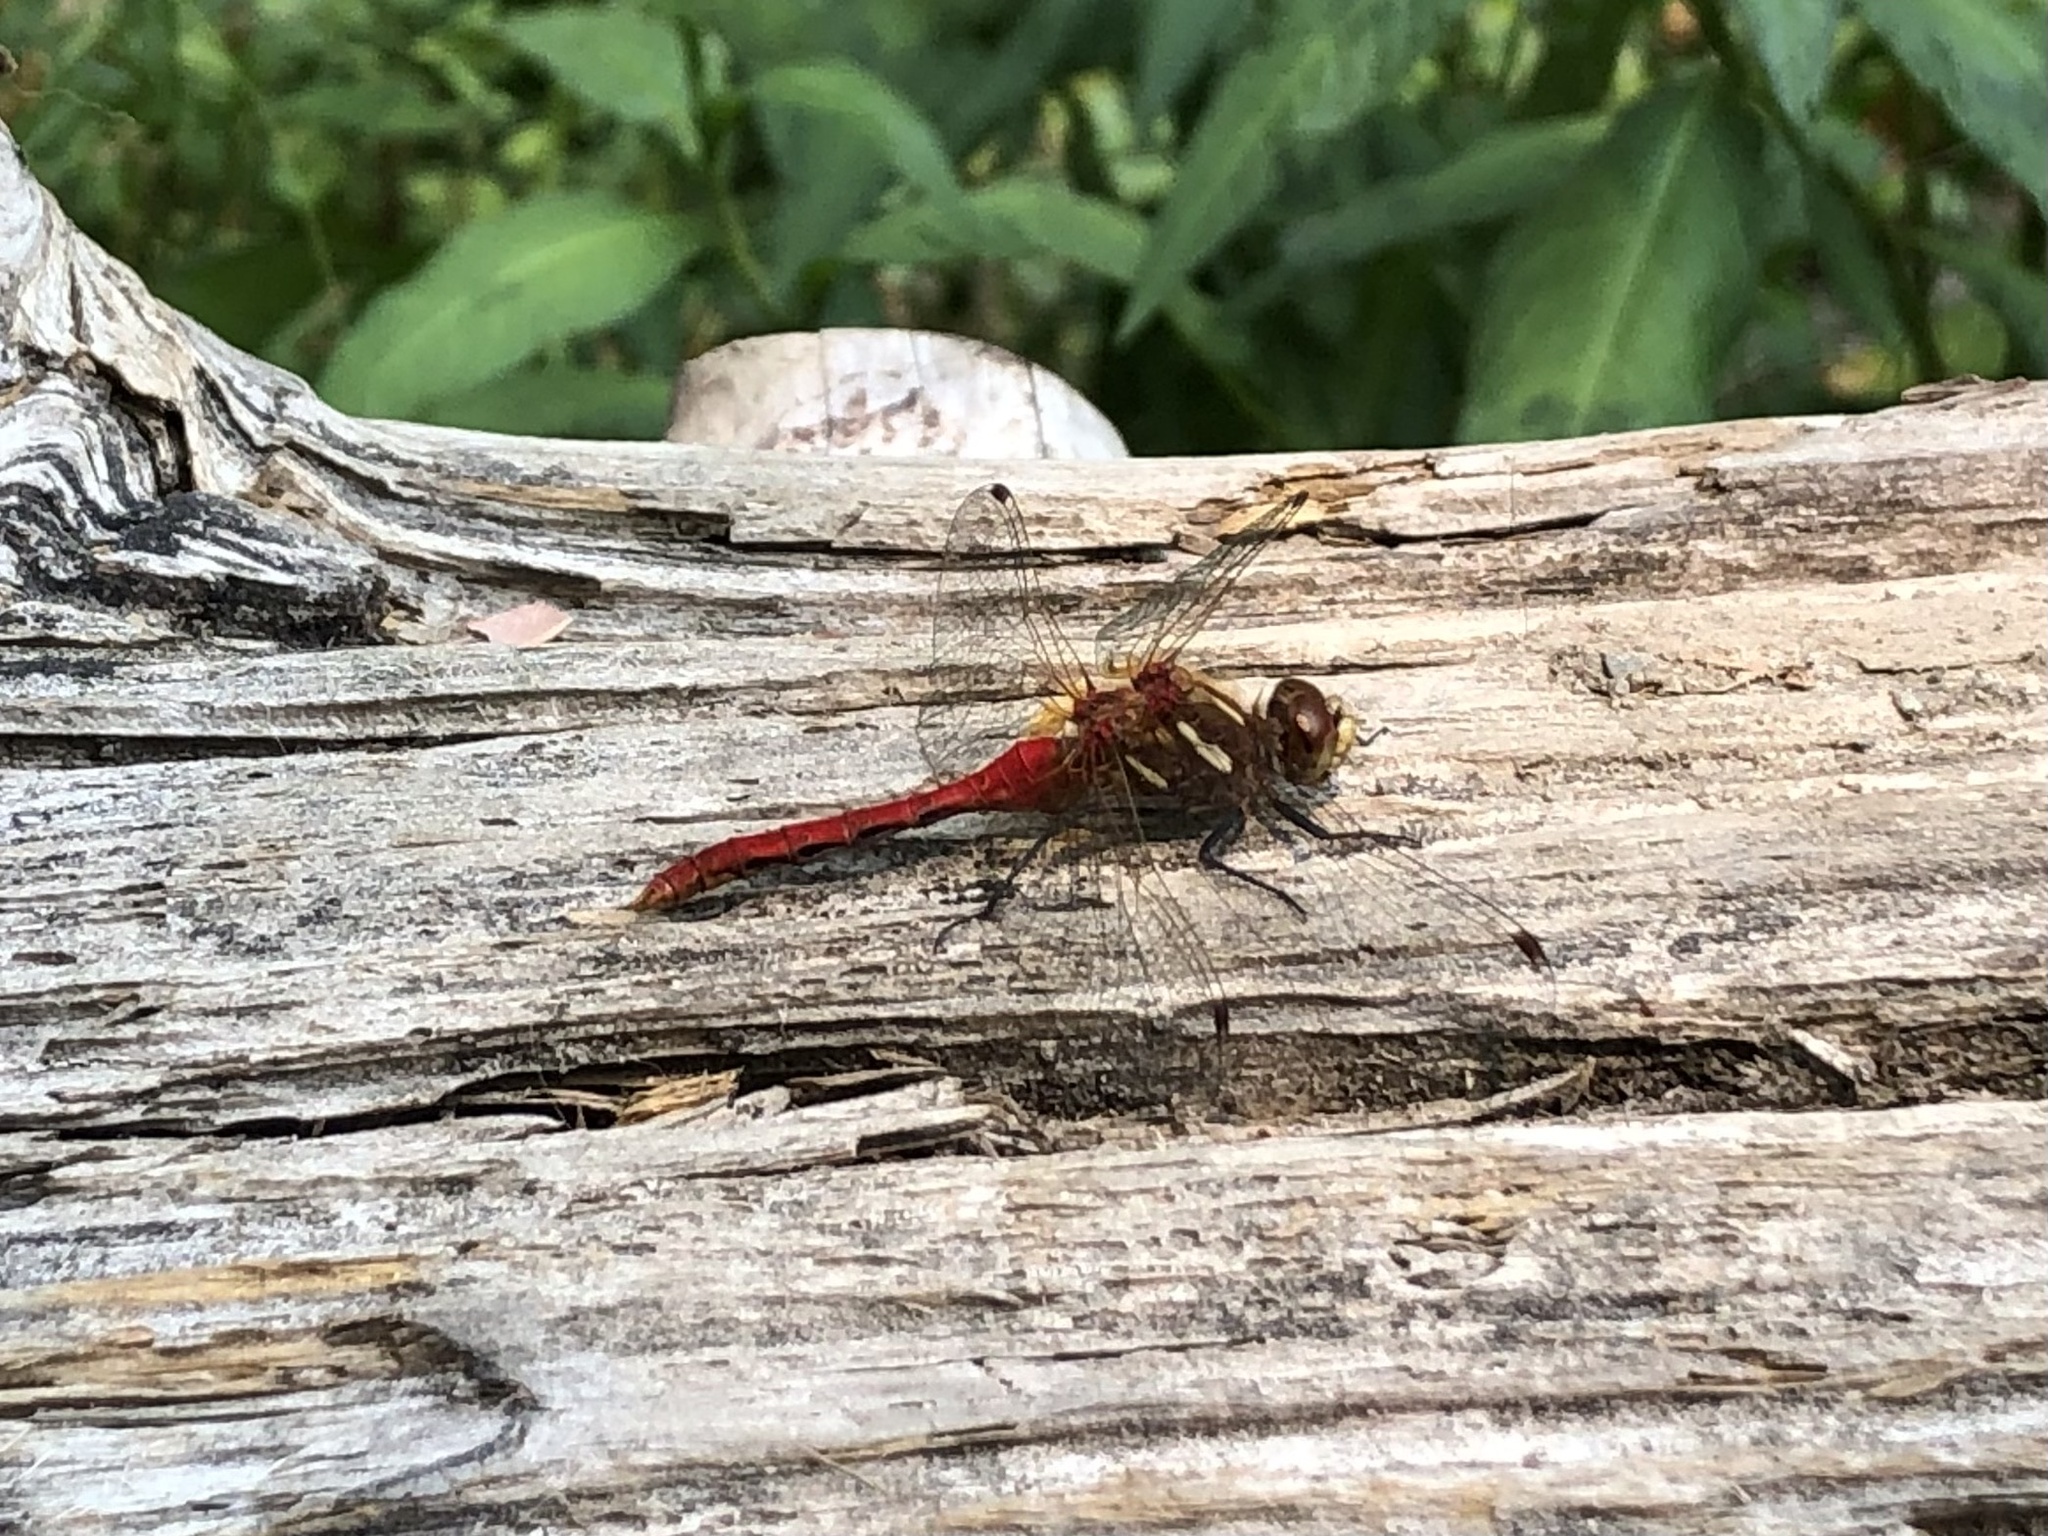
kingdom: Animalia
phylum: Arthropoda
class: Insecta
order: Odonata
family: Libellulidae
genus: Sympetrum
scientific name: Sympetrum pallipes
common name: Striped meadowhawk
